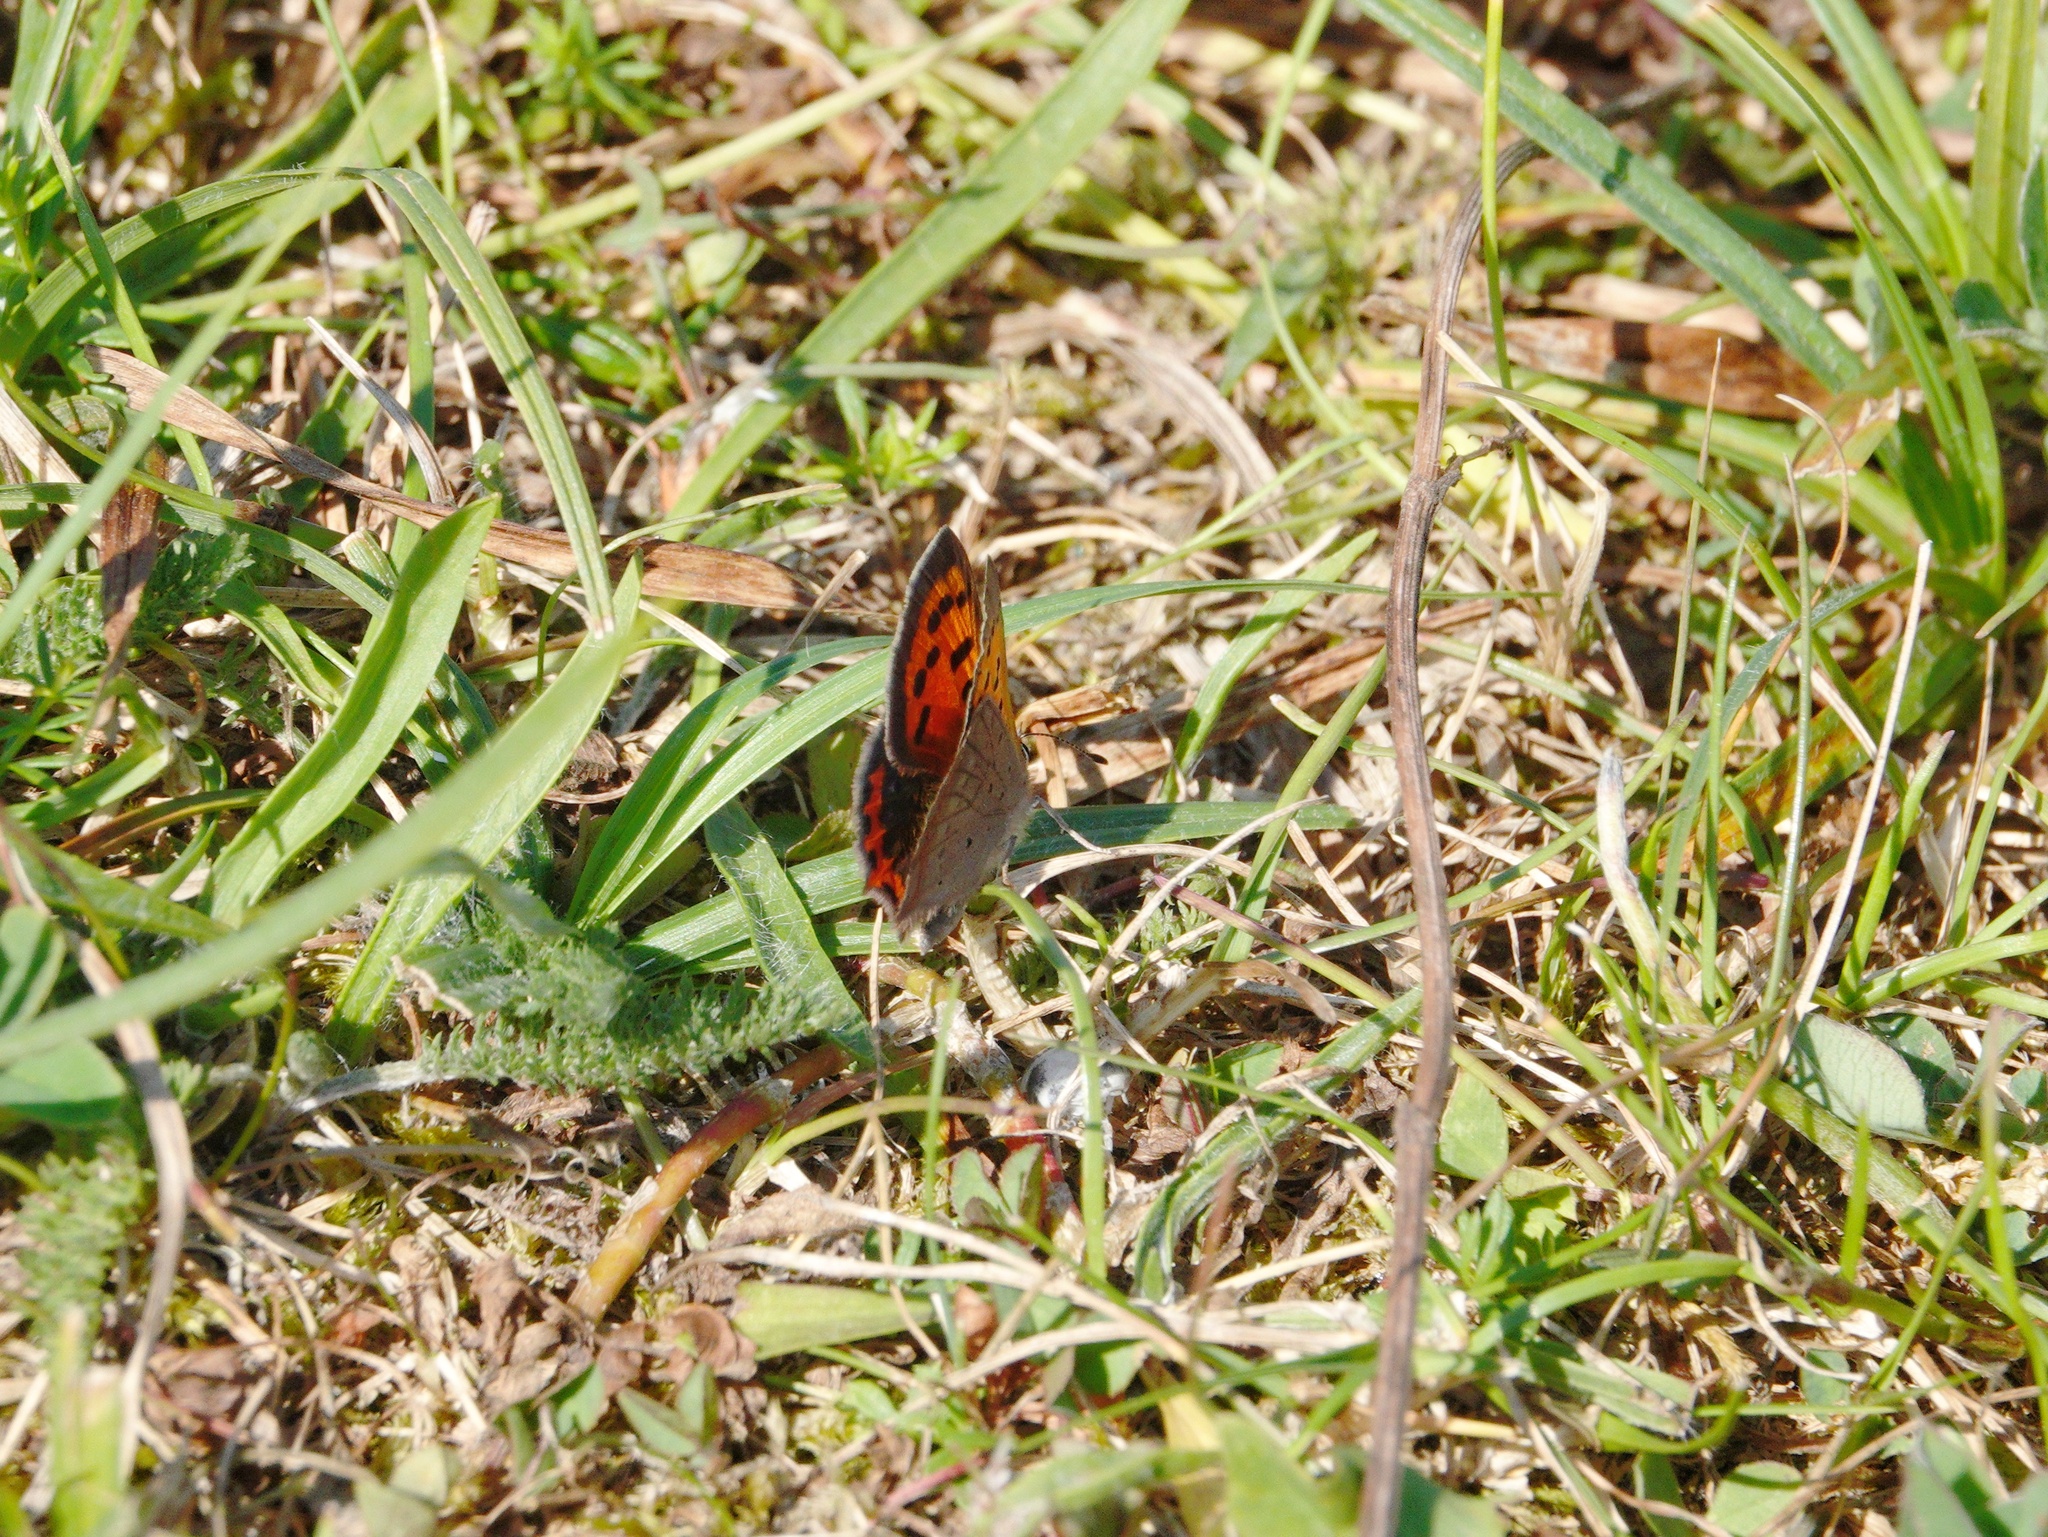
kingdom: Animalia
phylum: Arthropoda
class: Insecta
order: Lepidoptera
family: Lycaenidae
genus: Lycaena
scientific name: Lycaena phlaeas
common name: Small copper
